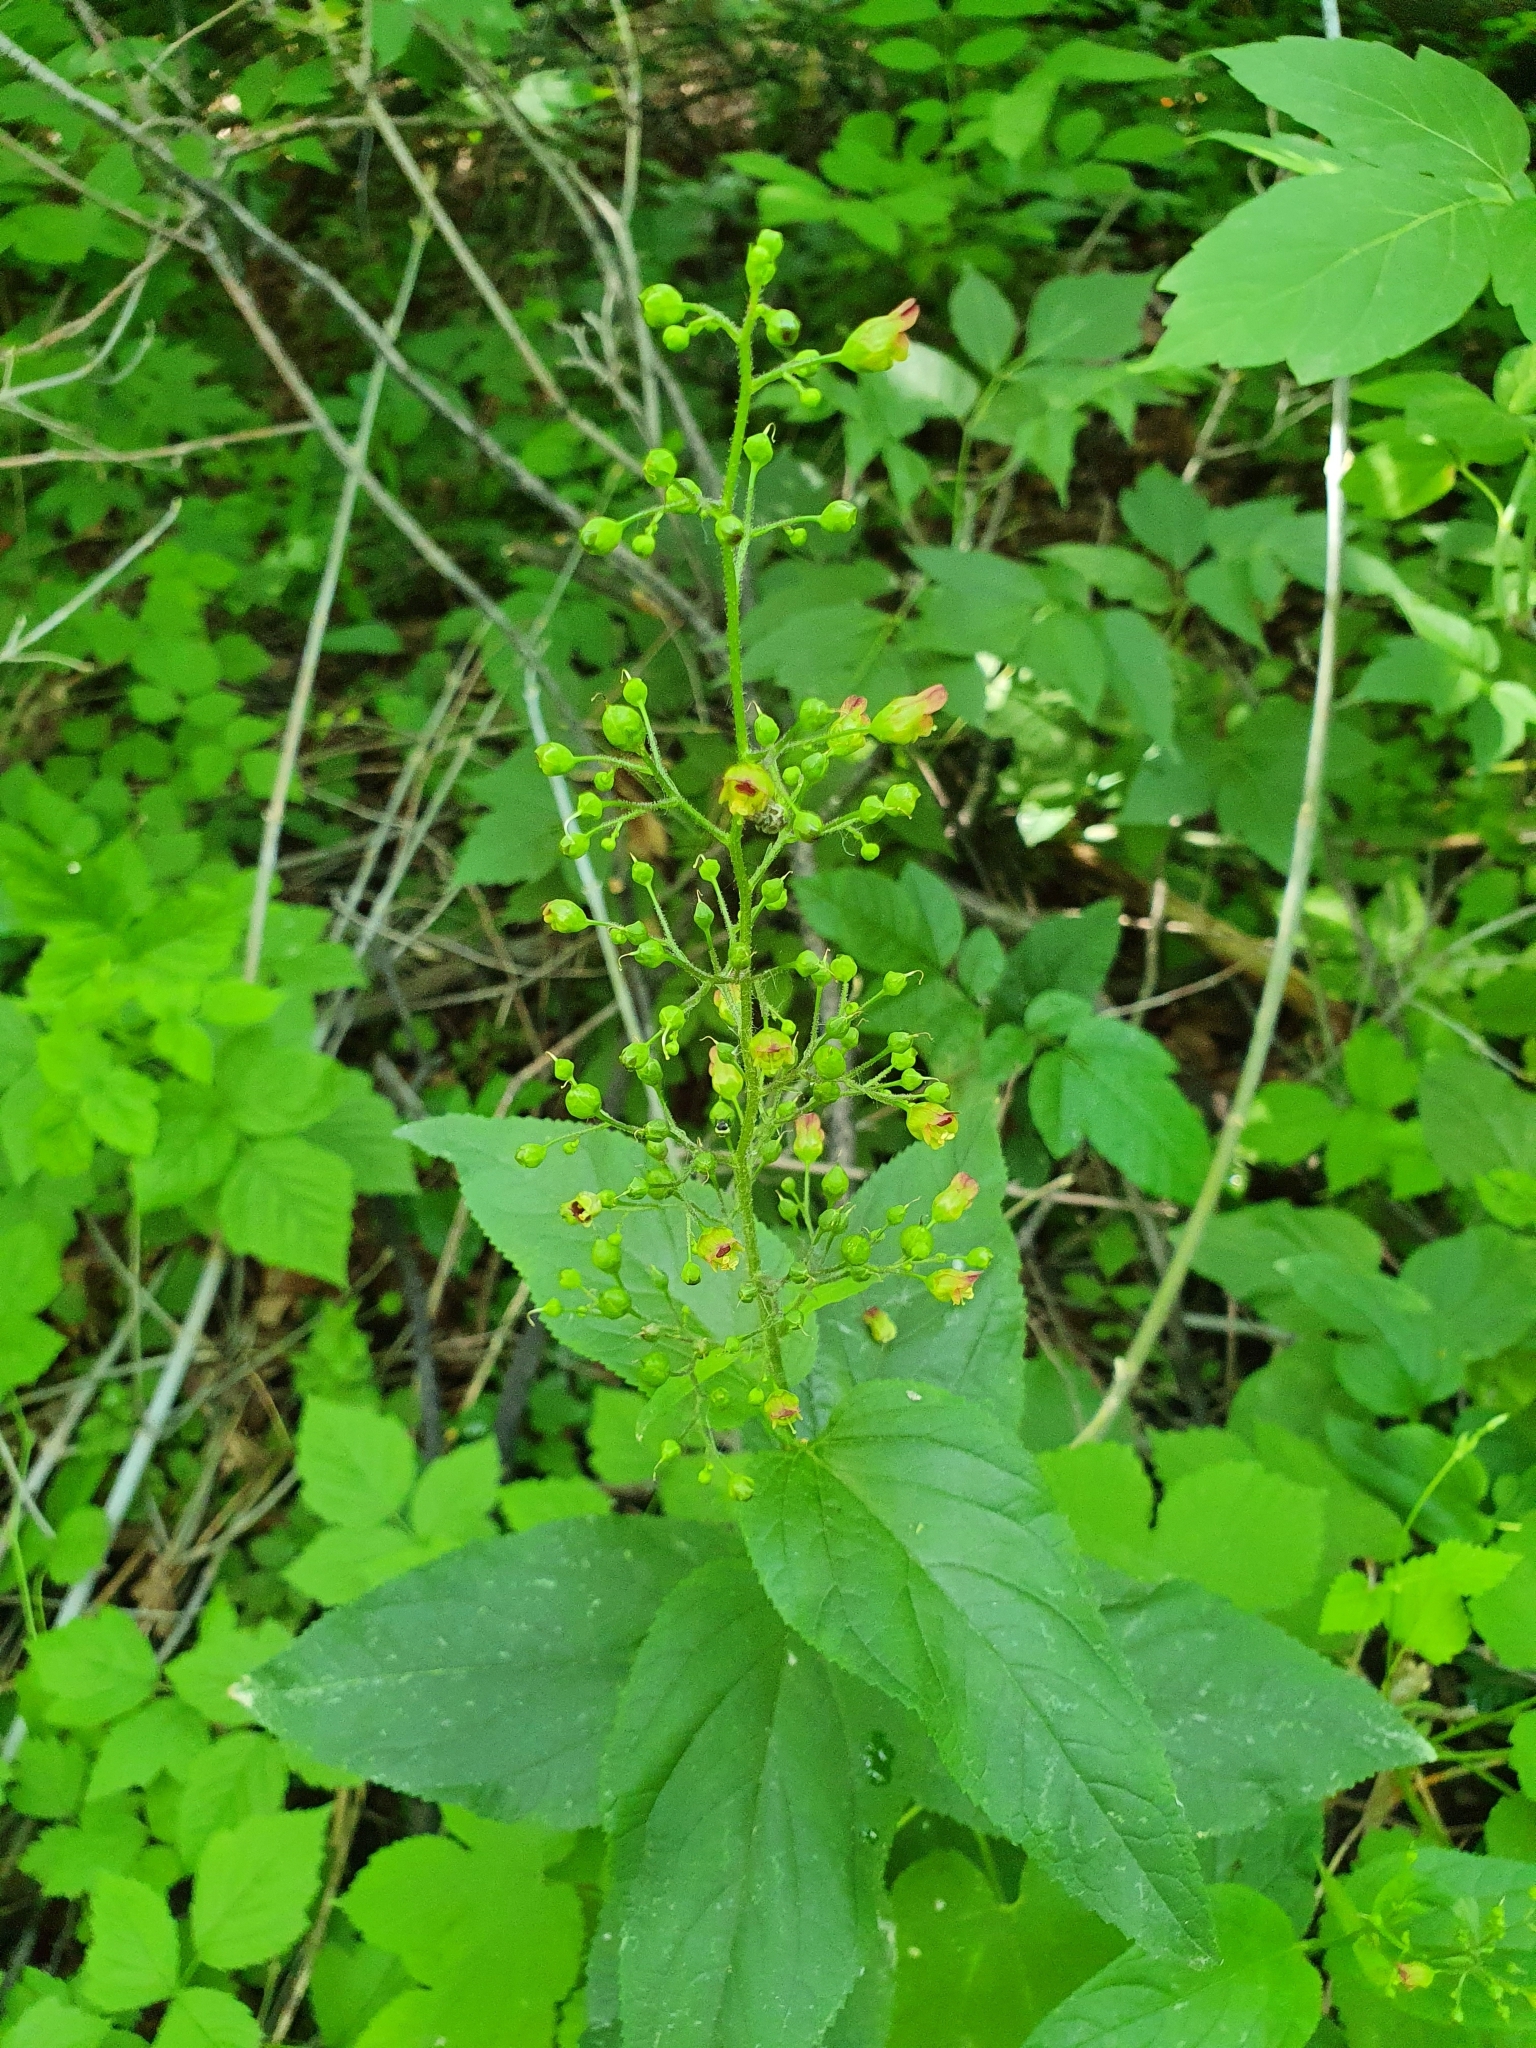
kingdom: Plantae
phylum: Tracheophyta
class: Magnoliopsida
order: Lamiales
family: Scrophulariaceae
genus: Scrophularia
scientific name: Scrophularia nodosa
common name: Common figwort
